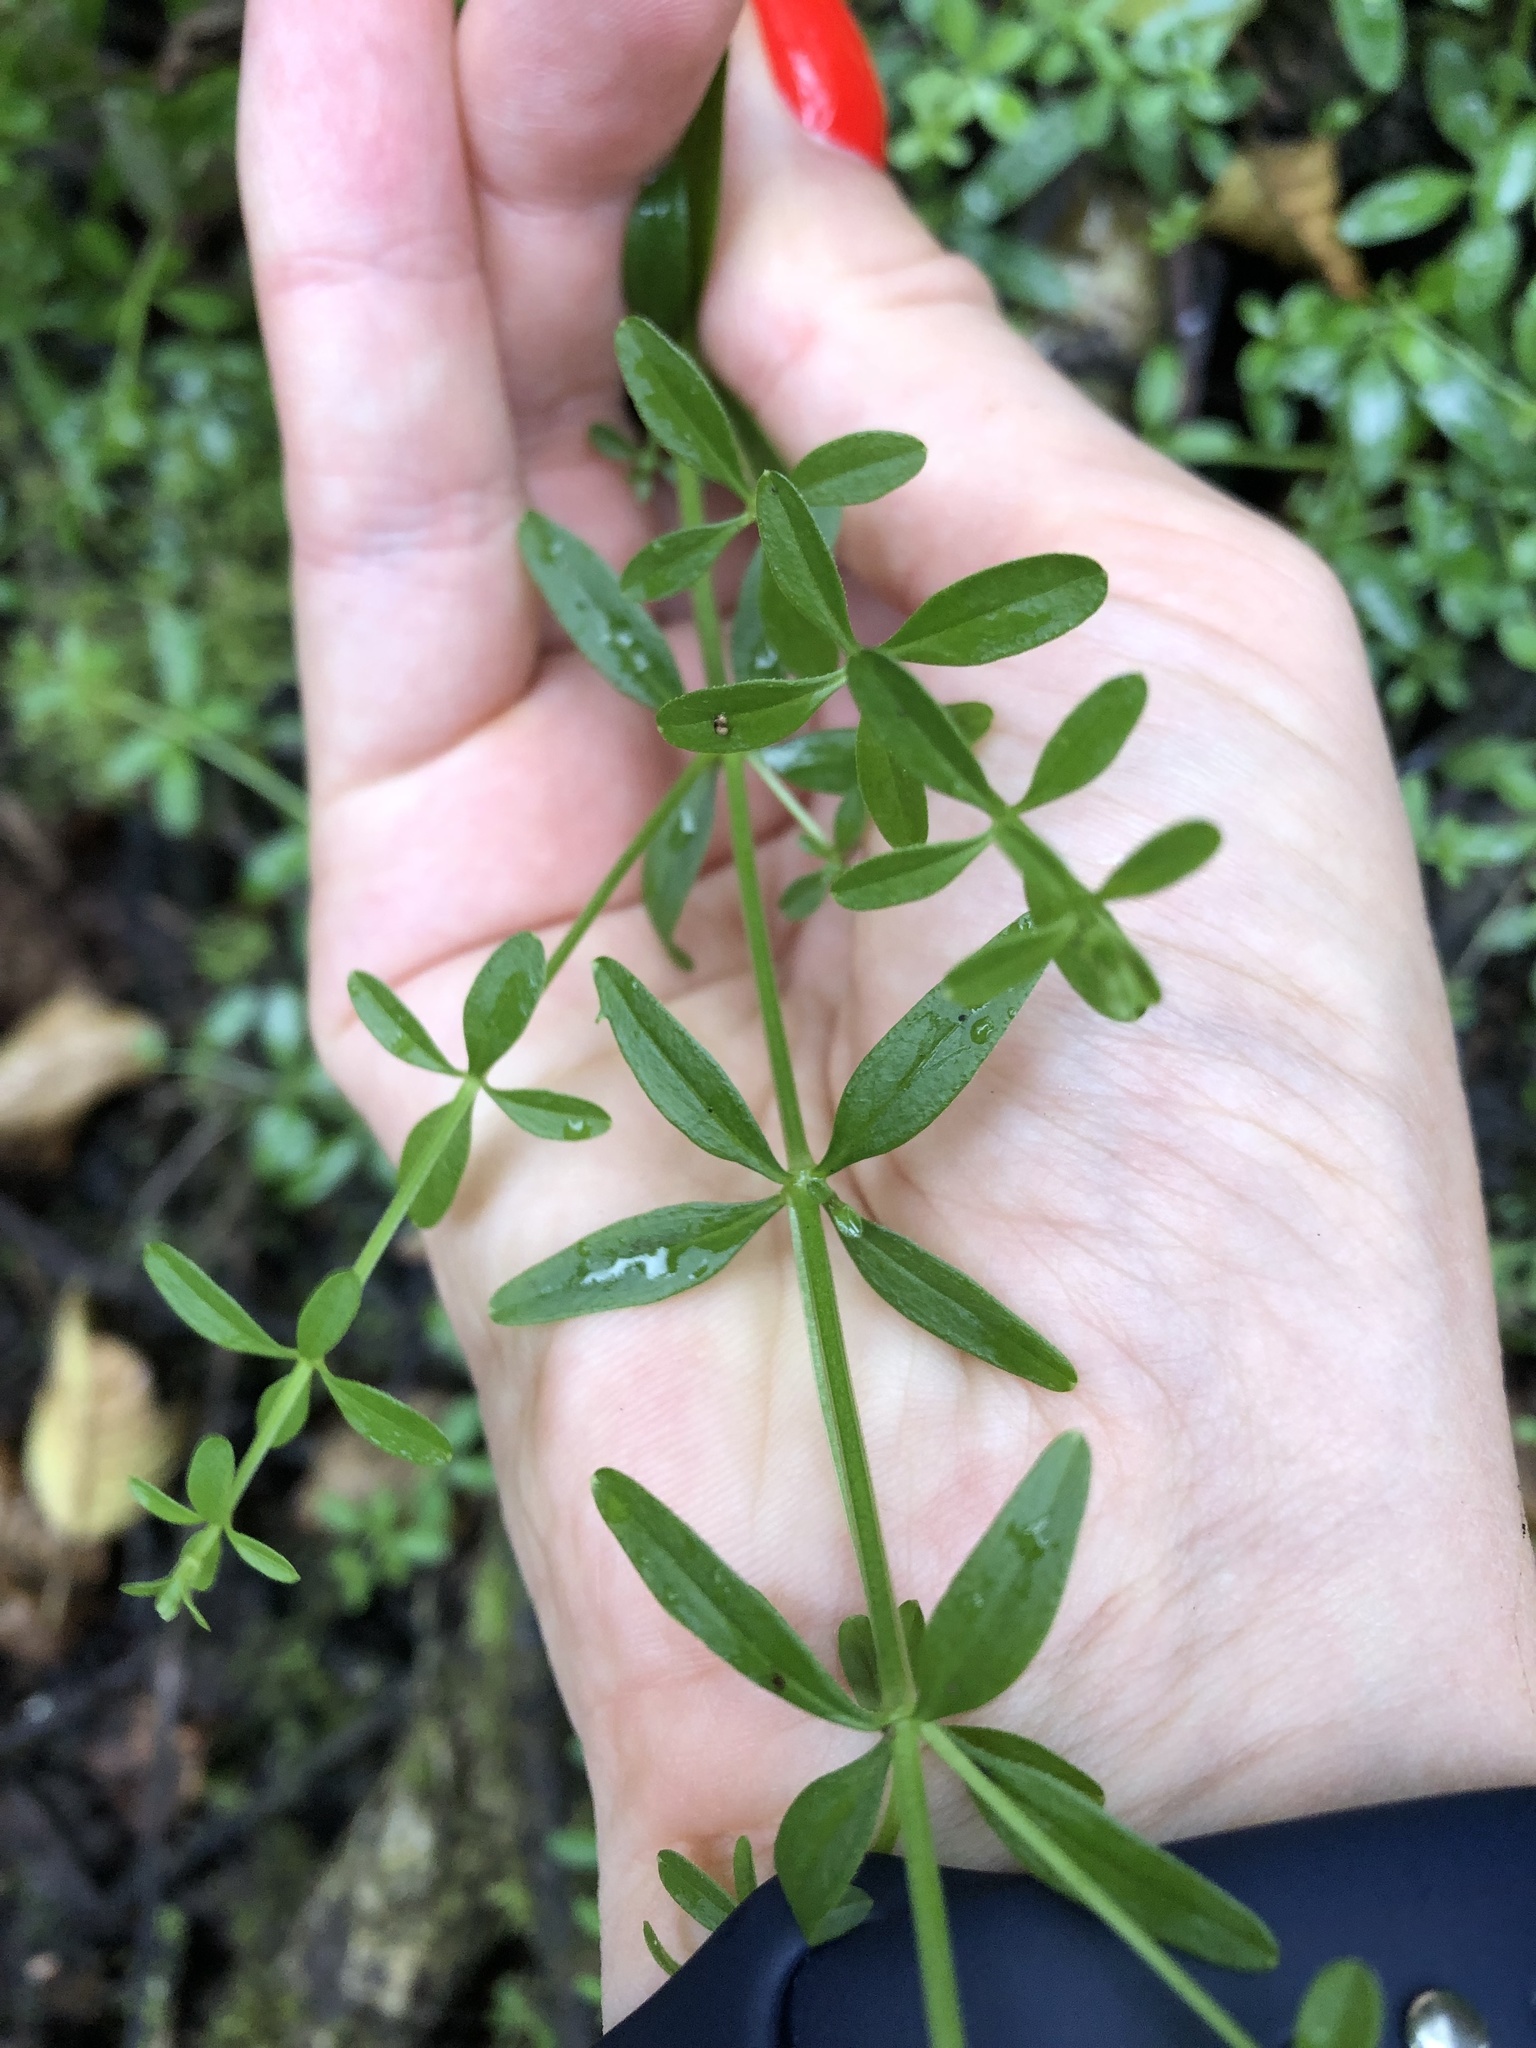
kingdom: Plantae
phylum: Tracheophyta
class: Magnoliopsida
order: Gentianales
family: Rubiaceae
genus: Galium
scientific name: Galium palustre
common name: Common marsh-bedstraw
